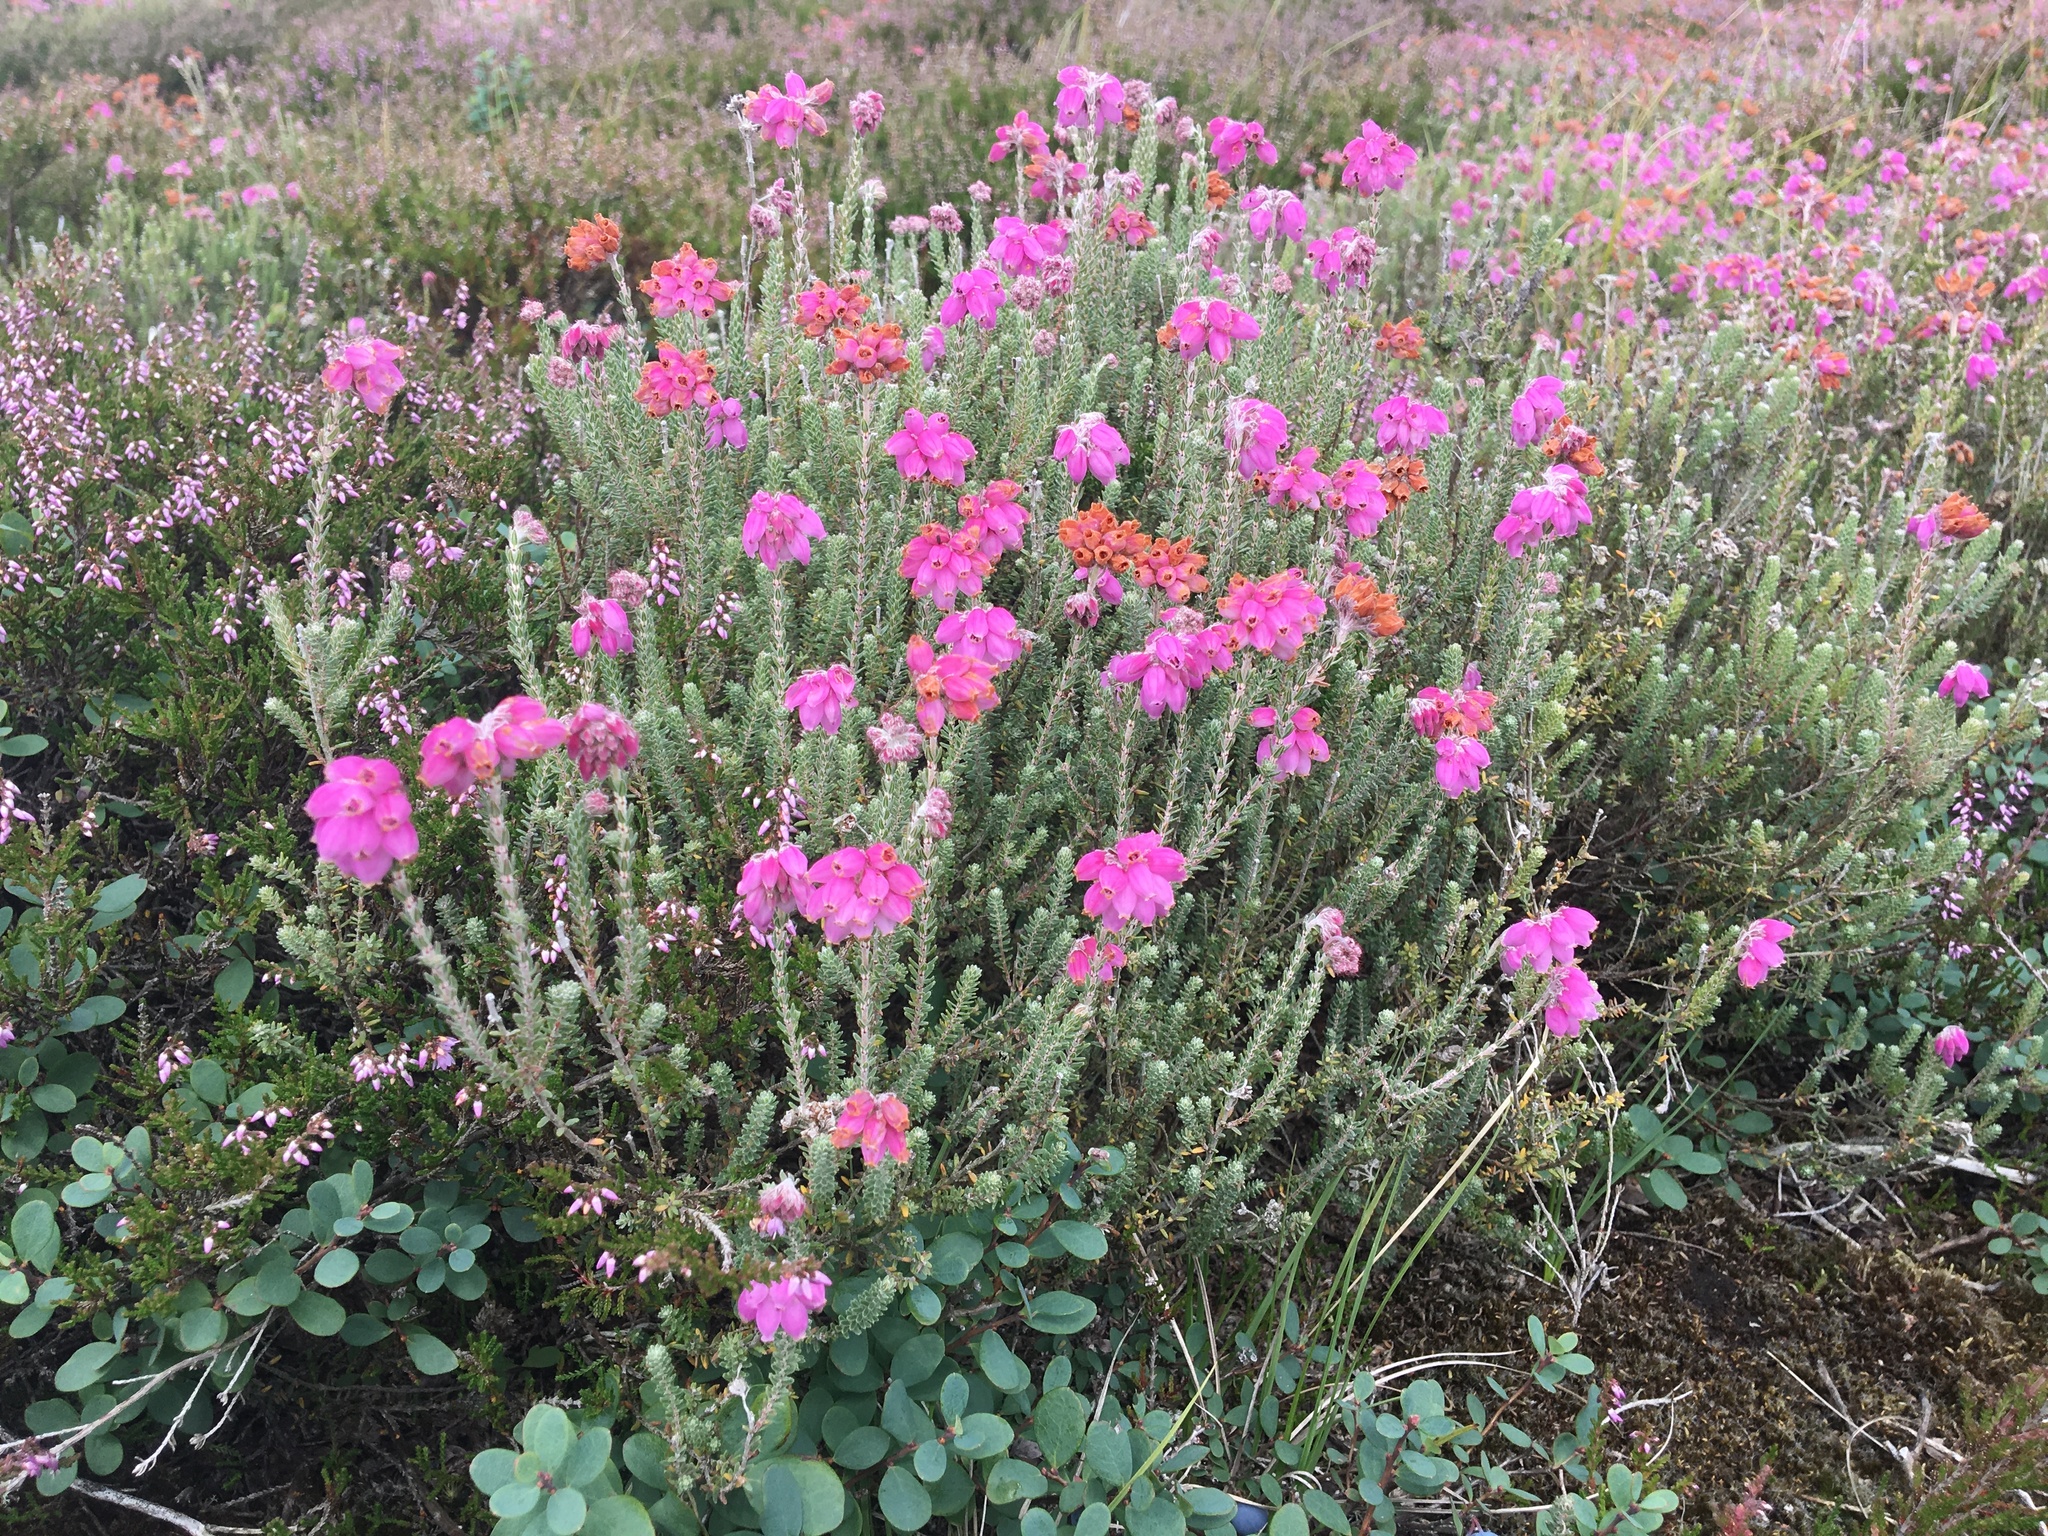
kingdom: Plantae
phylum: Tracheophyta
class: Magnoliopsida
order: Ericales
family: Ericaceae
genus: Erica
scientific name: Erica tetralix
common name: Cross-leaved heath
